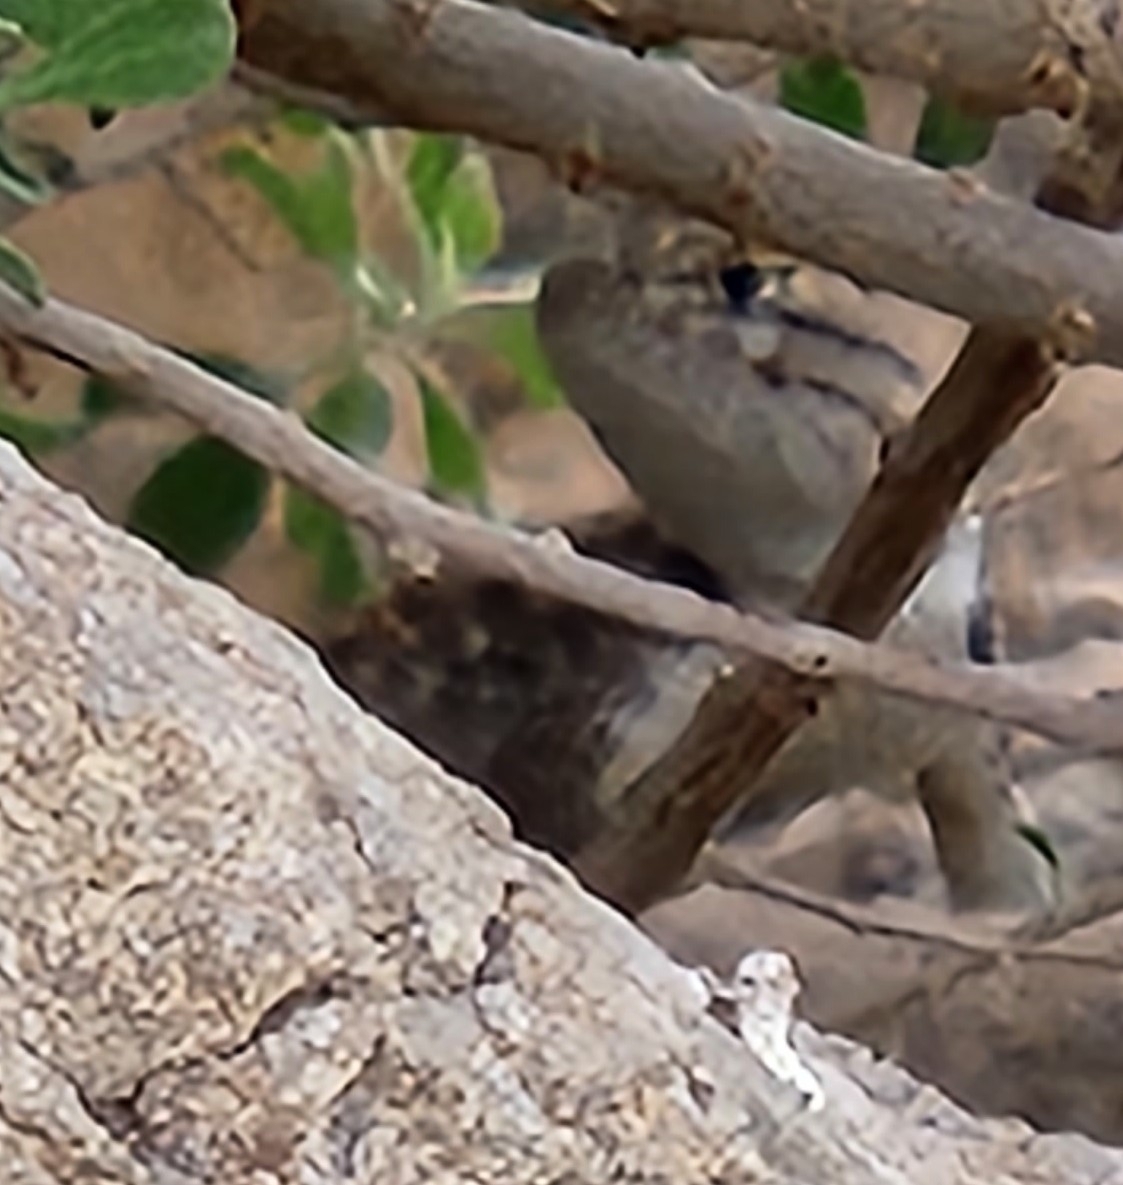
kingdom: Animalia
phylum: Chordata
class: Squamata
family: Phrynosomatidae
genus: Sceloporus
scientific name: Sceloporus magister
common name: Desert spiny lizard
